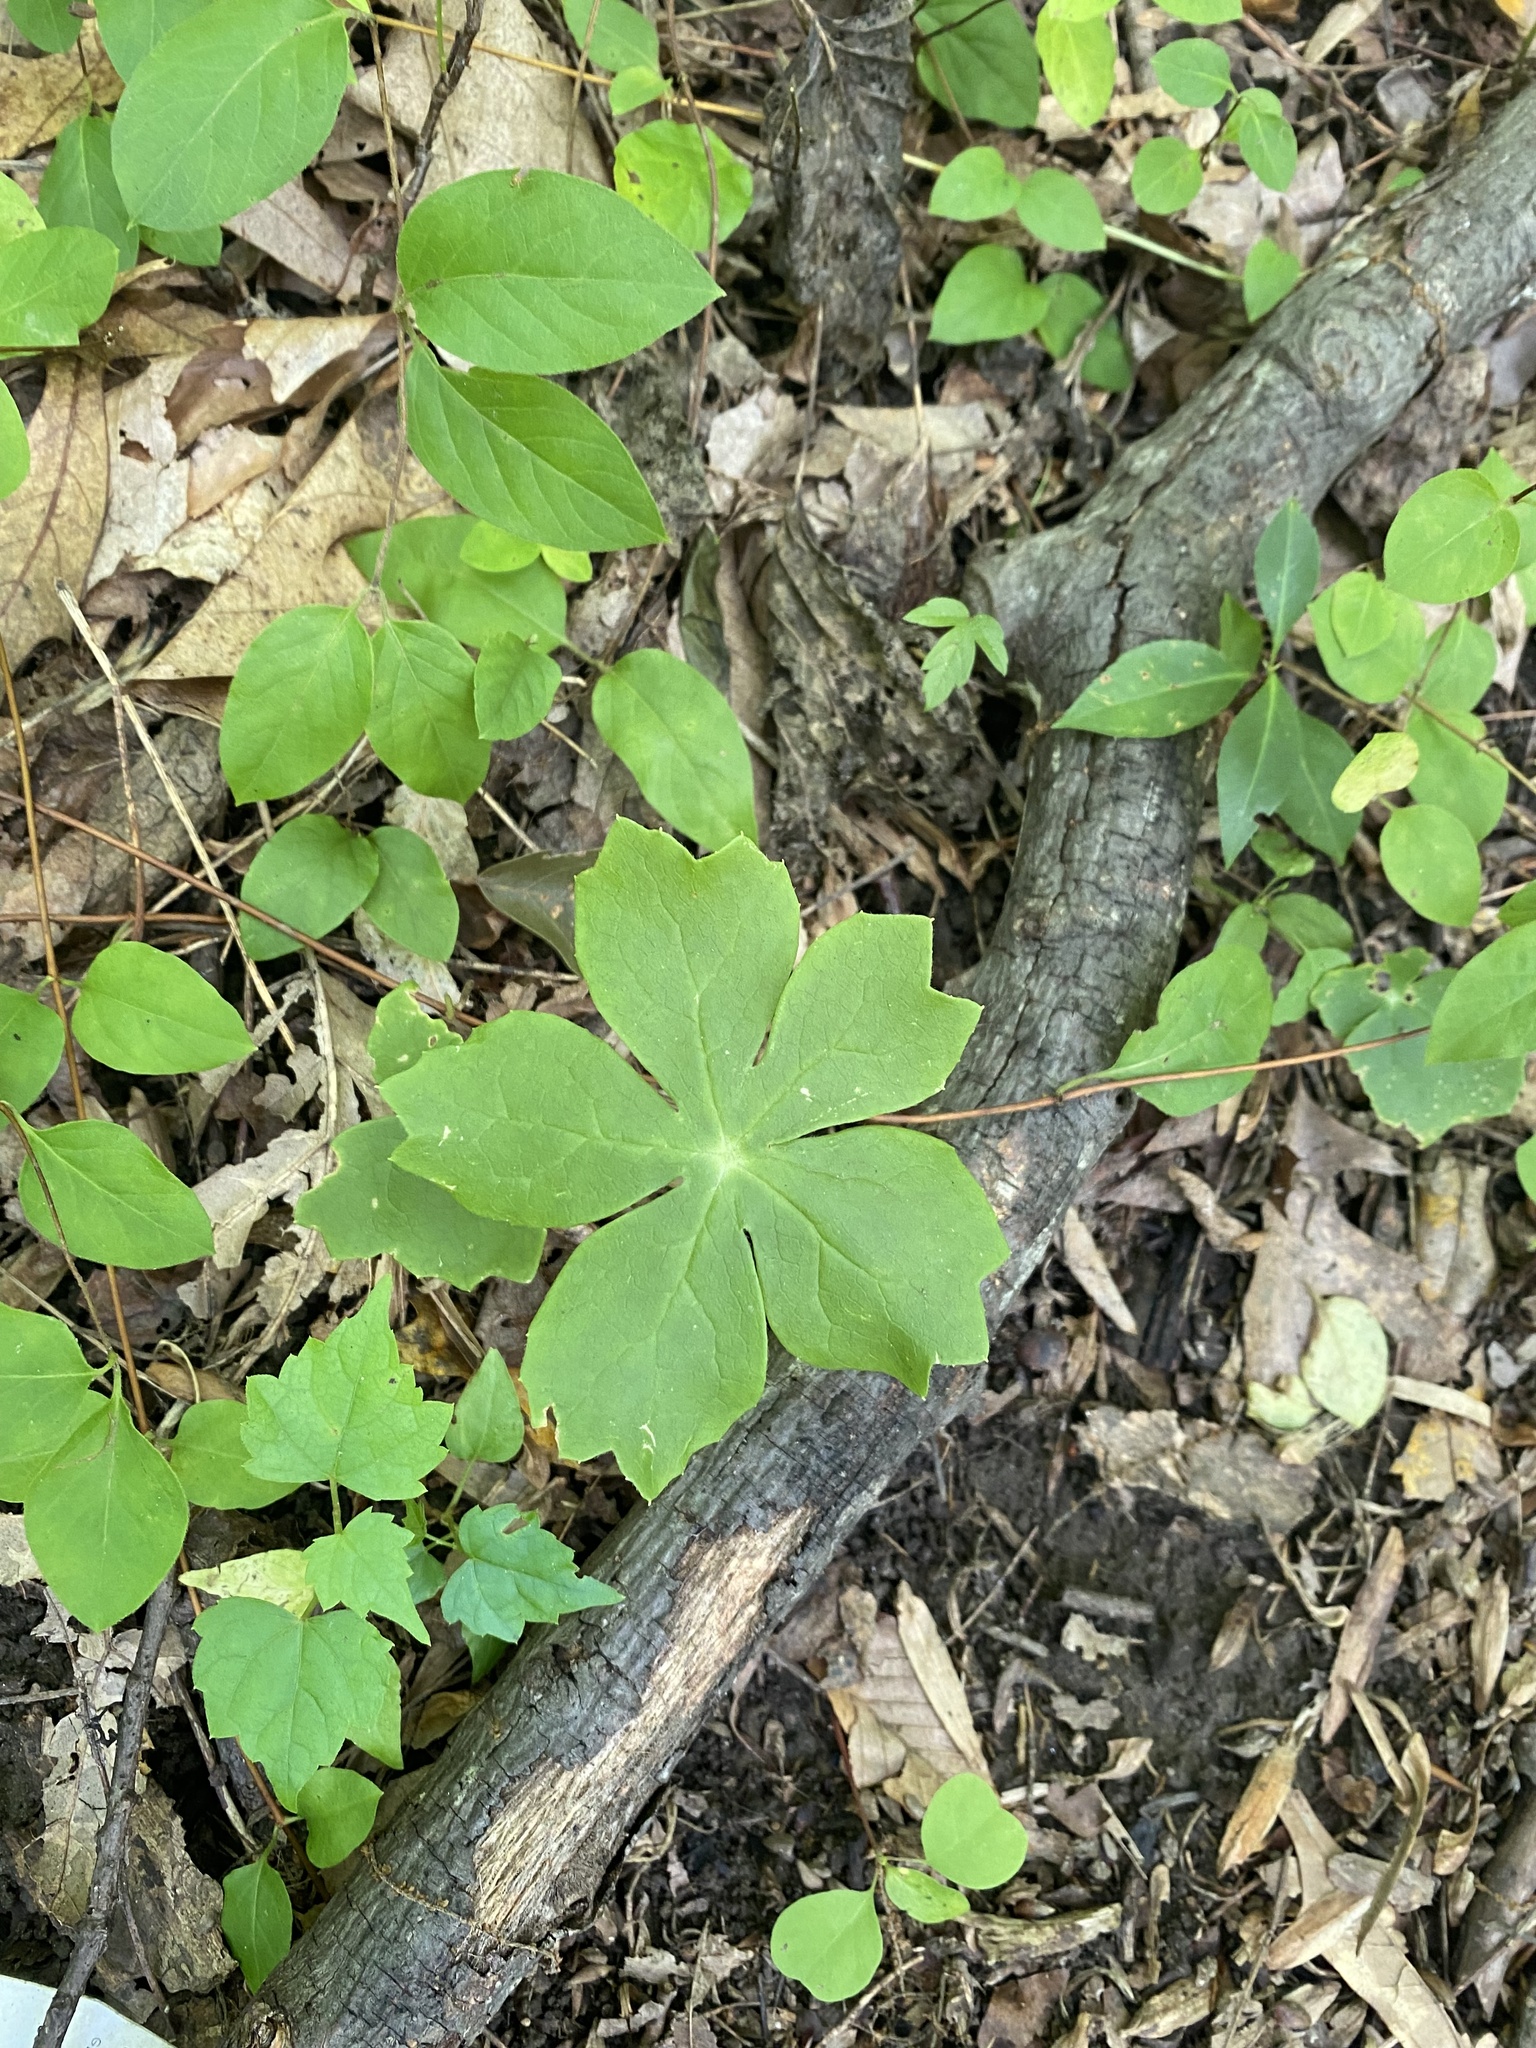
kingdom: Plantae
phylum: Tracheophyta
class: Magnoliopsida
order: Ranunculales
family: Berberidaceae
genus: Podophyllum
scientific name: Podophyllum peltatum
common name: Wild mandrake
